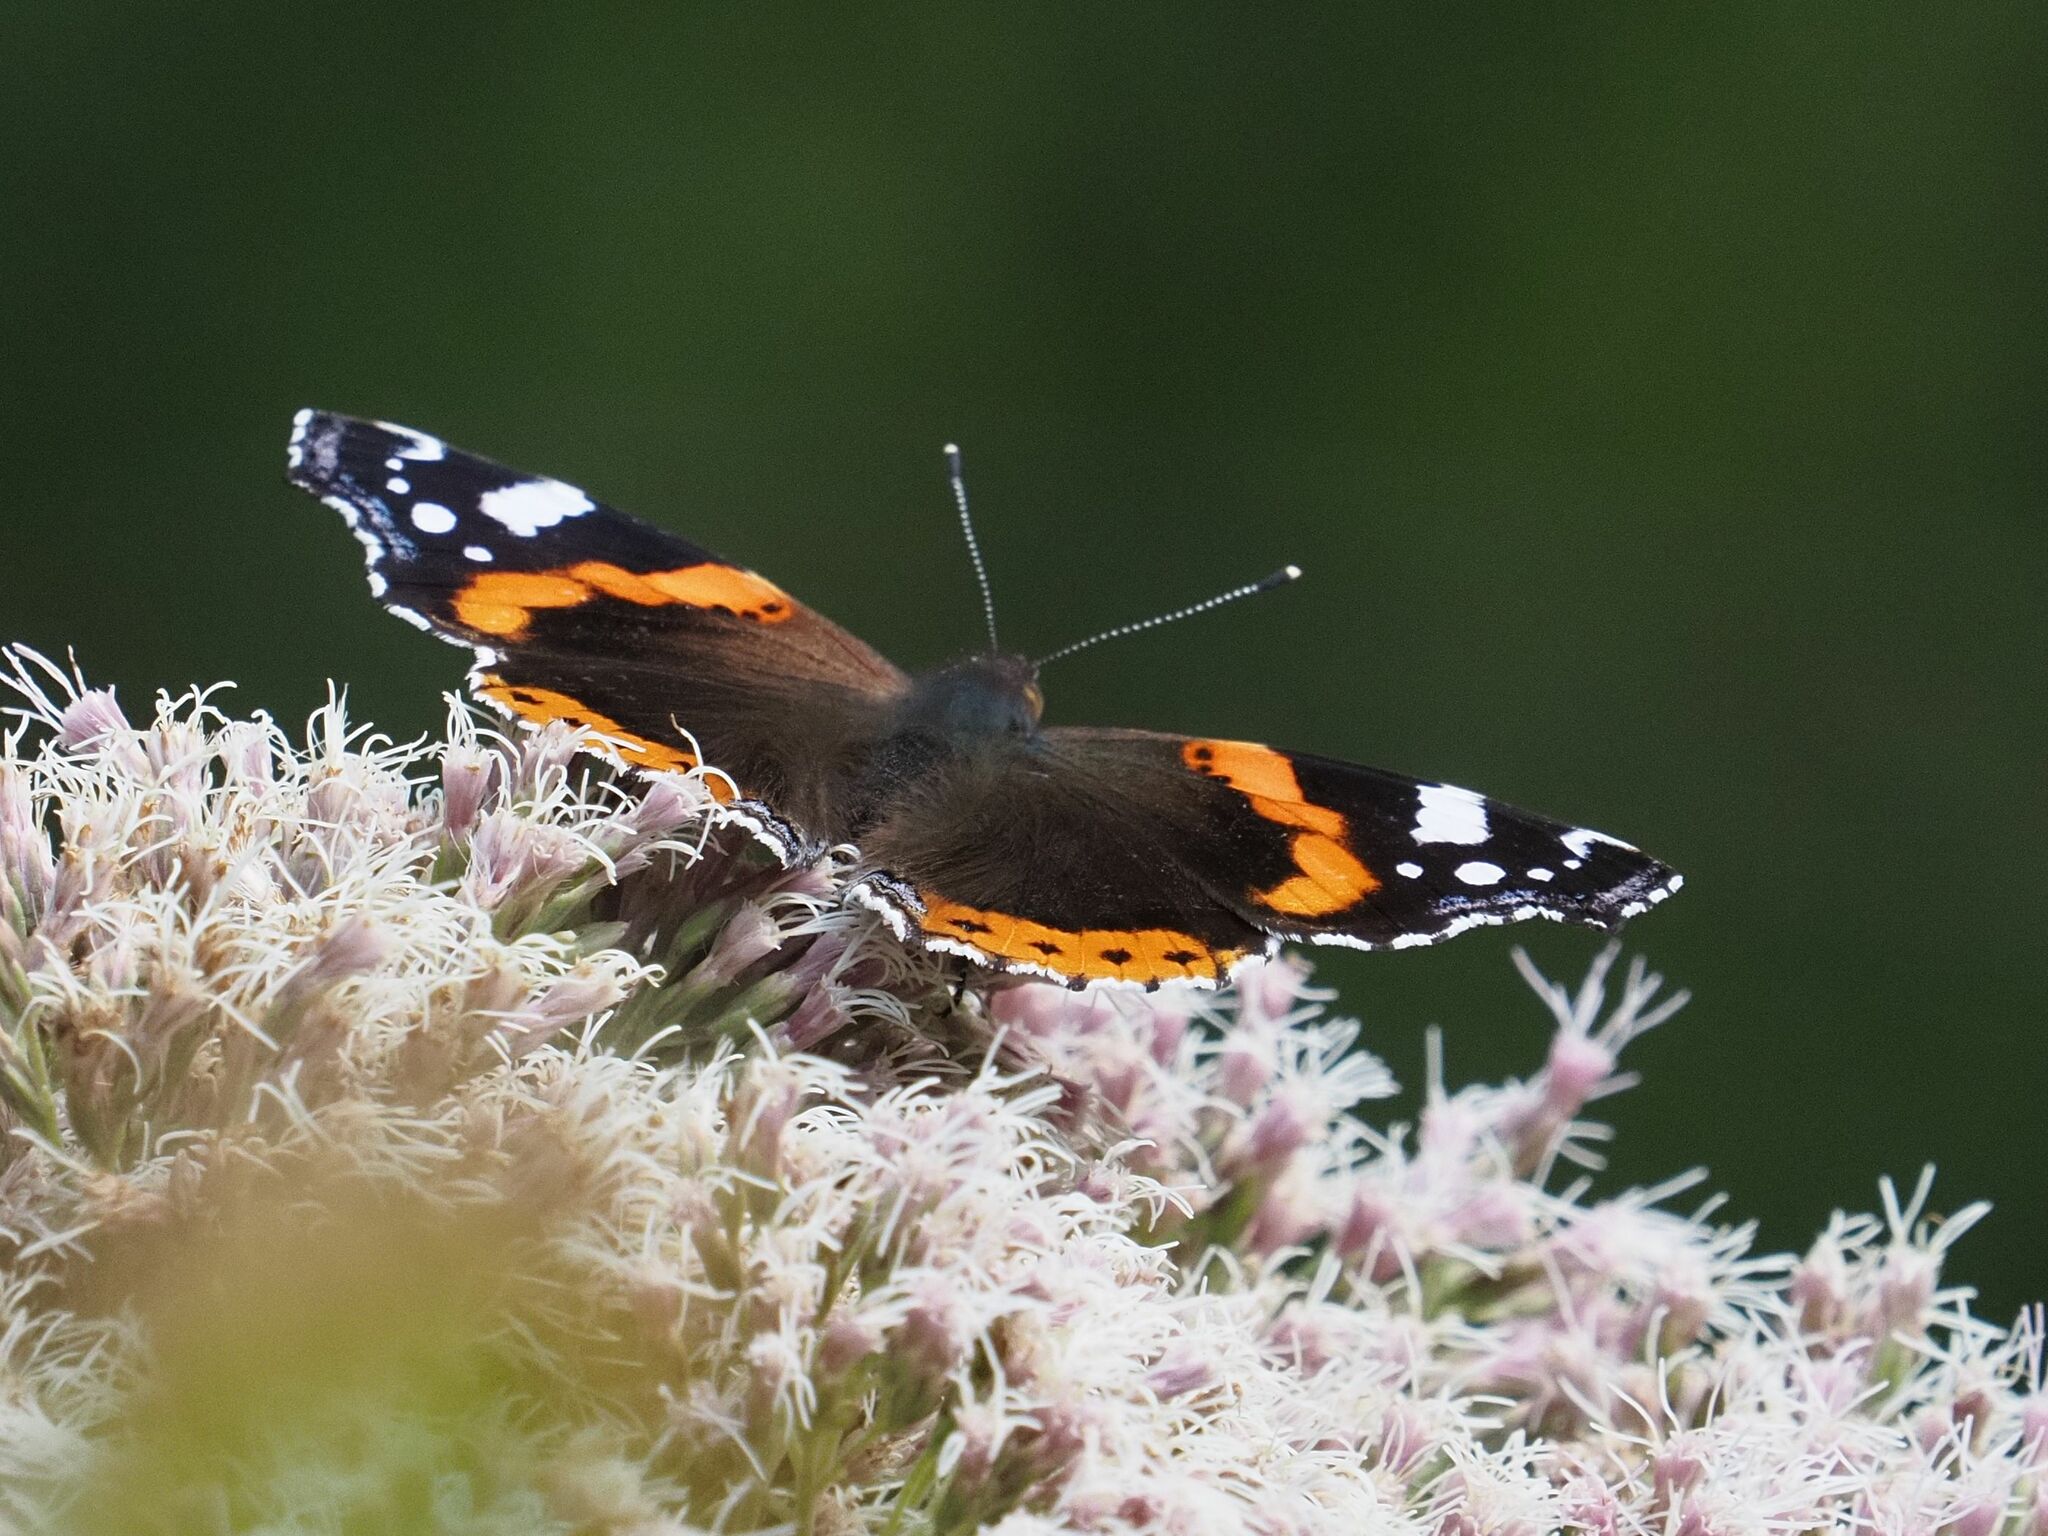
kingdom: Animalia
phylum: Arthropoda
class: Insecta
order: Lepidoptera
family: Nymphalidae
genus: Vanessa
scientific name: Vanessa atalanta
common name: Red admiral
